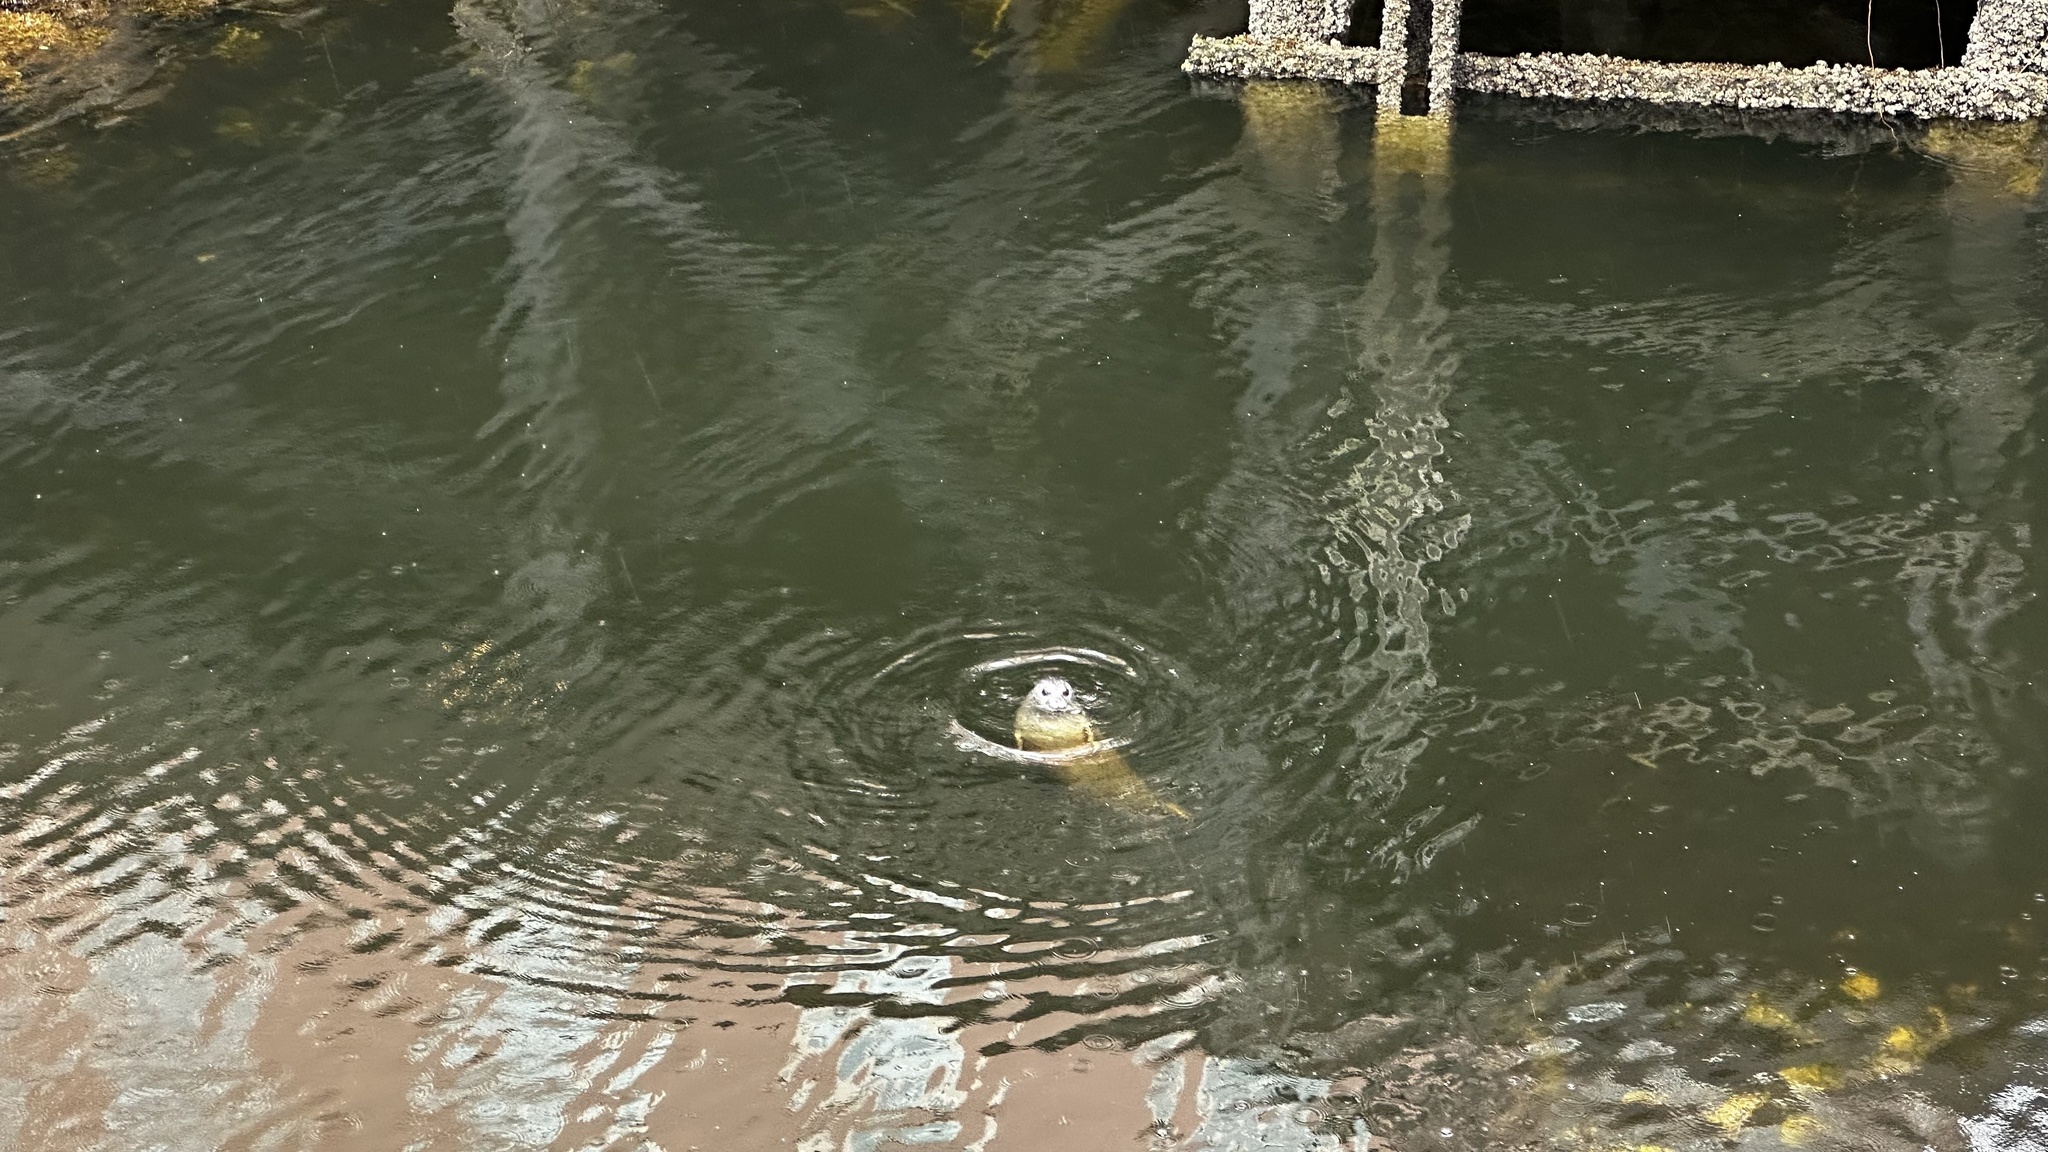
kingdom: Animalia
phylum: Chordata
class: Mammalia
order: Carnivora
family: Phocidae
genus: Phoca
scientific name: Phoca vitulina
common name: Harbor seal
